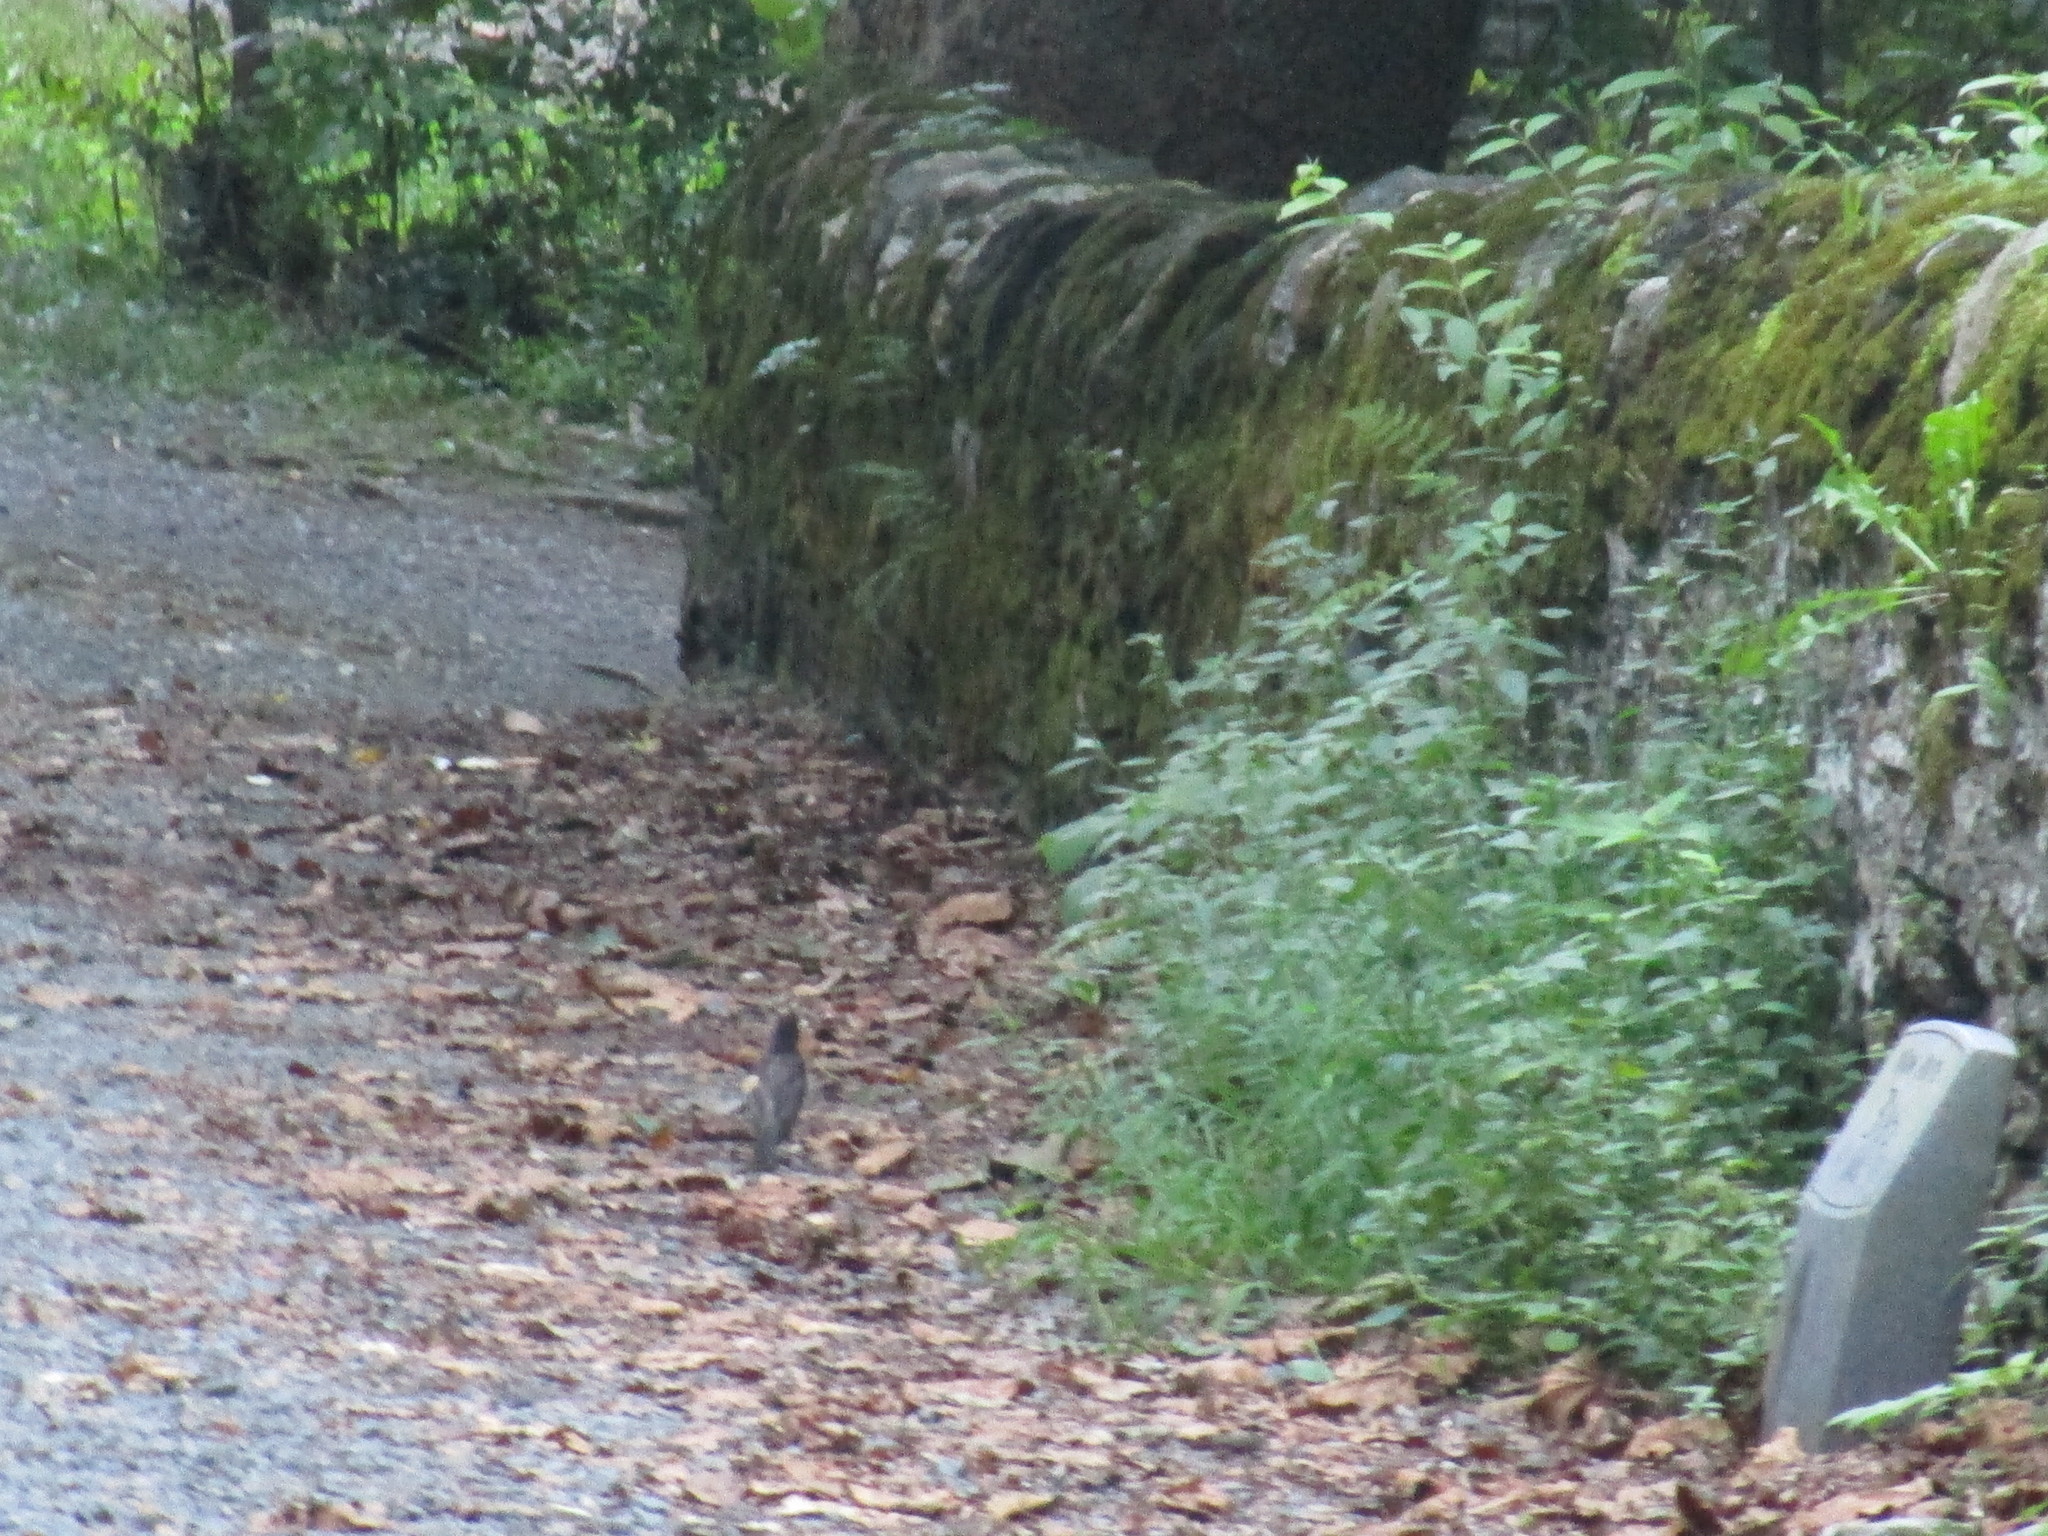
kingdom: Animalia
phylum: Chordata
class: Aves
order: Passeriformes
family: Turdidae
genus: Turdus
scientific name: Turdus migratorius
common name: American robin
